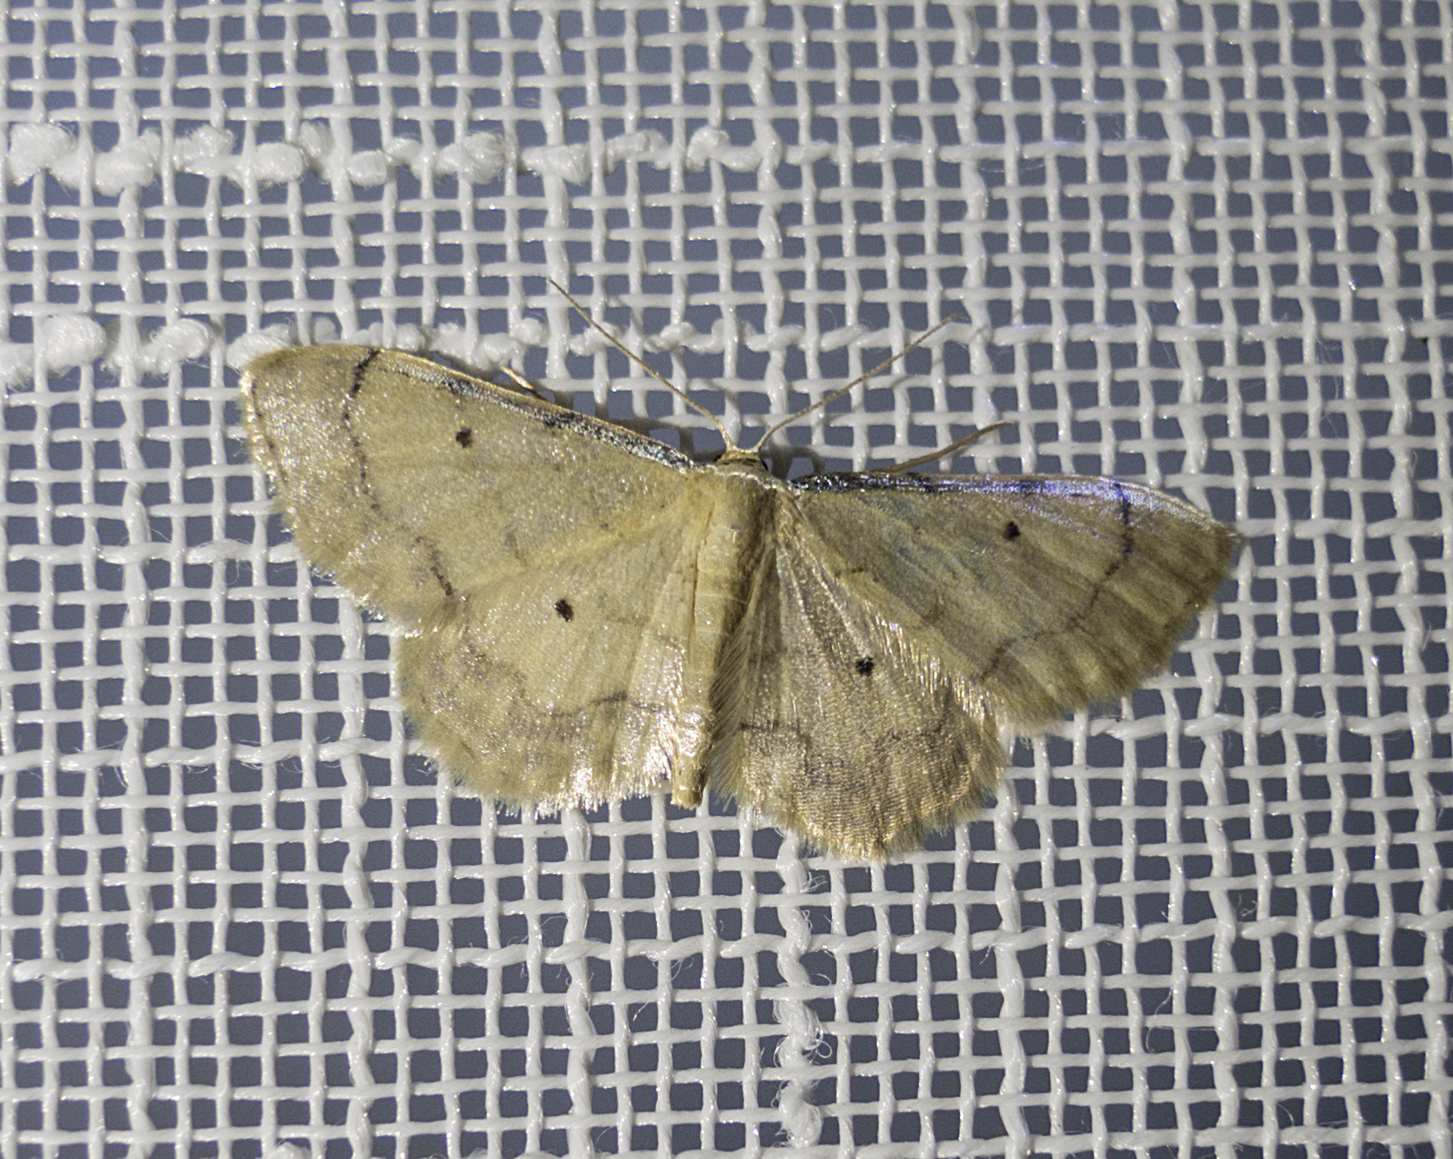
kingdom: Animalia
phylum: Arthropoda
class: Insecta
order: Lepidoptera
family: Geometridae
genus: Idaea
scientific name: Idaea politaria
